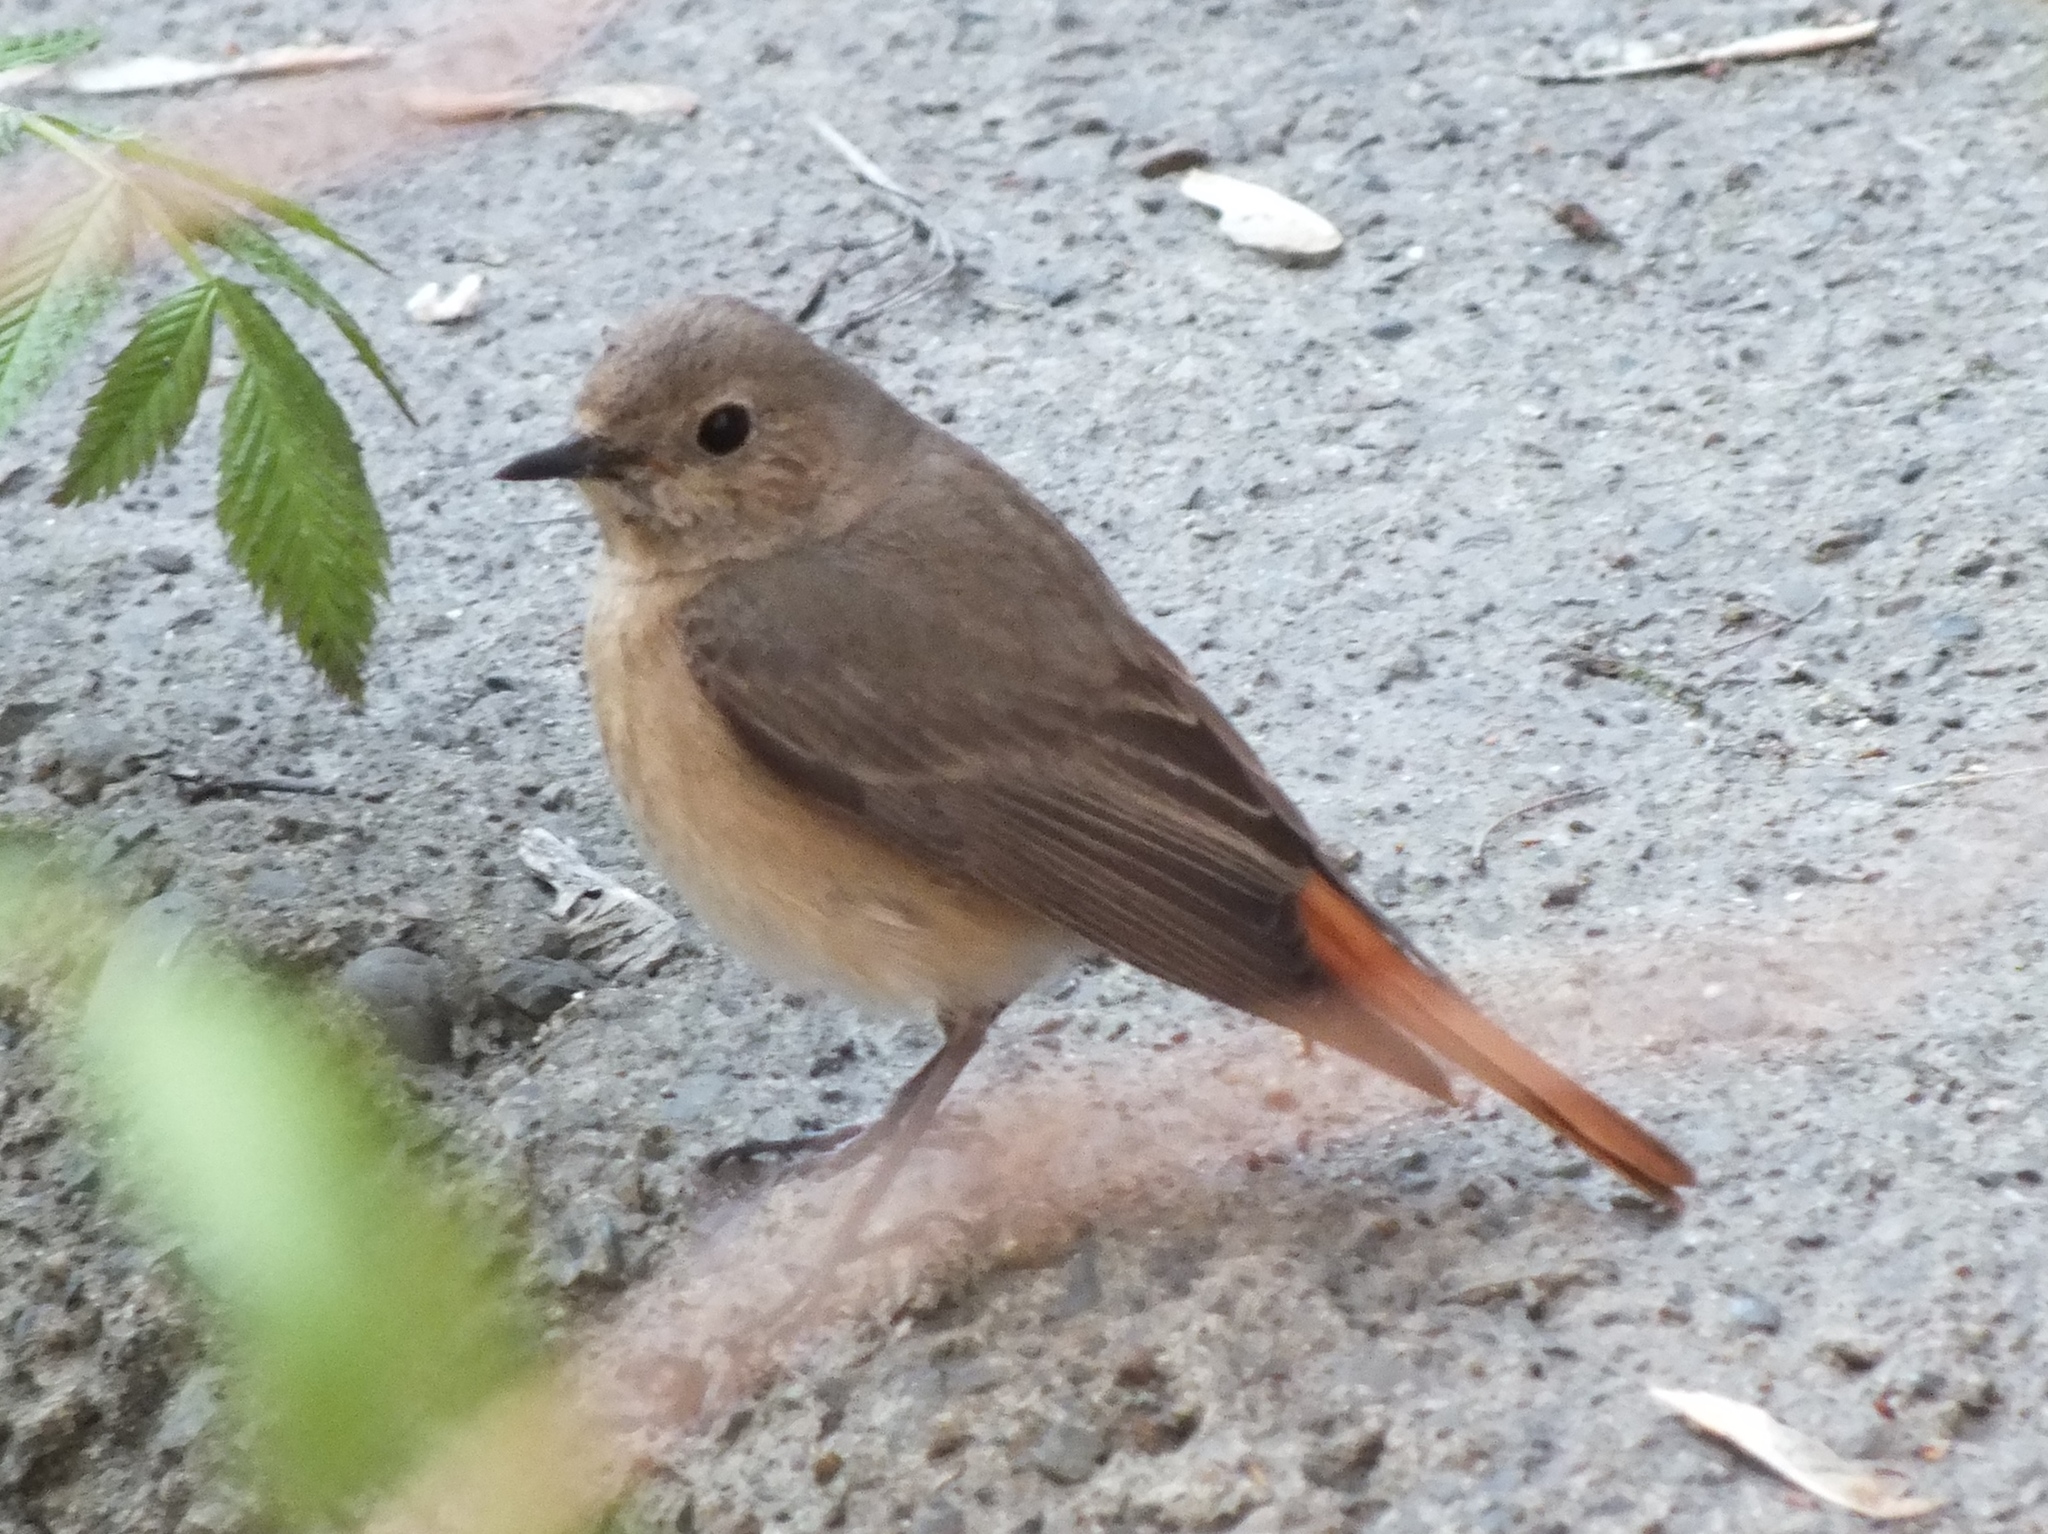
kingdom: Animalia
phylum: Chordata
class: Aves
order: Passeriformes
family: Muscicapidae
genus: Phoenicurus
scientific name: Phoenicurus phoenicurus
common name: Common redstart
